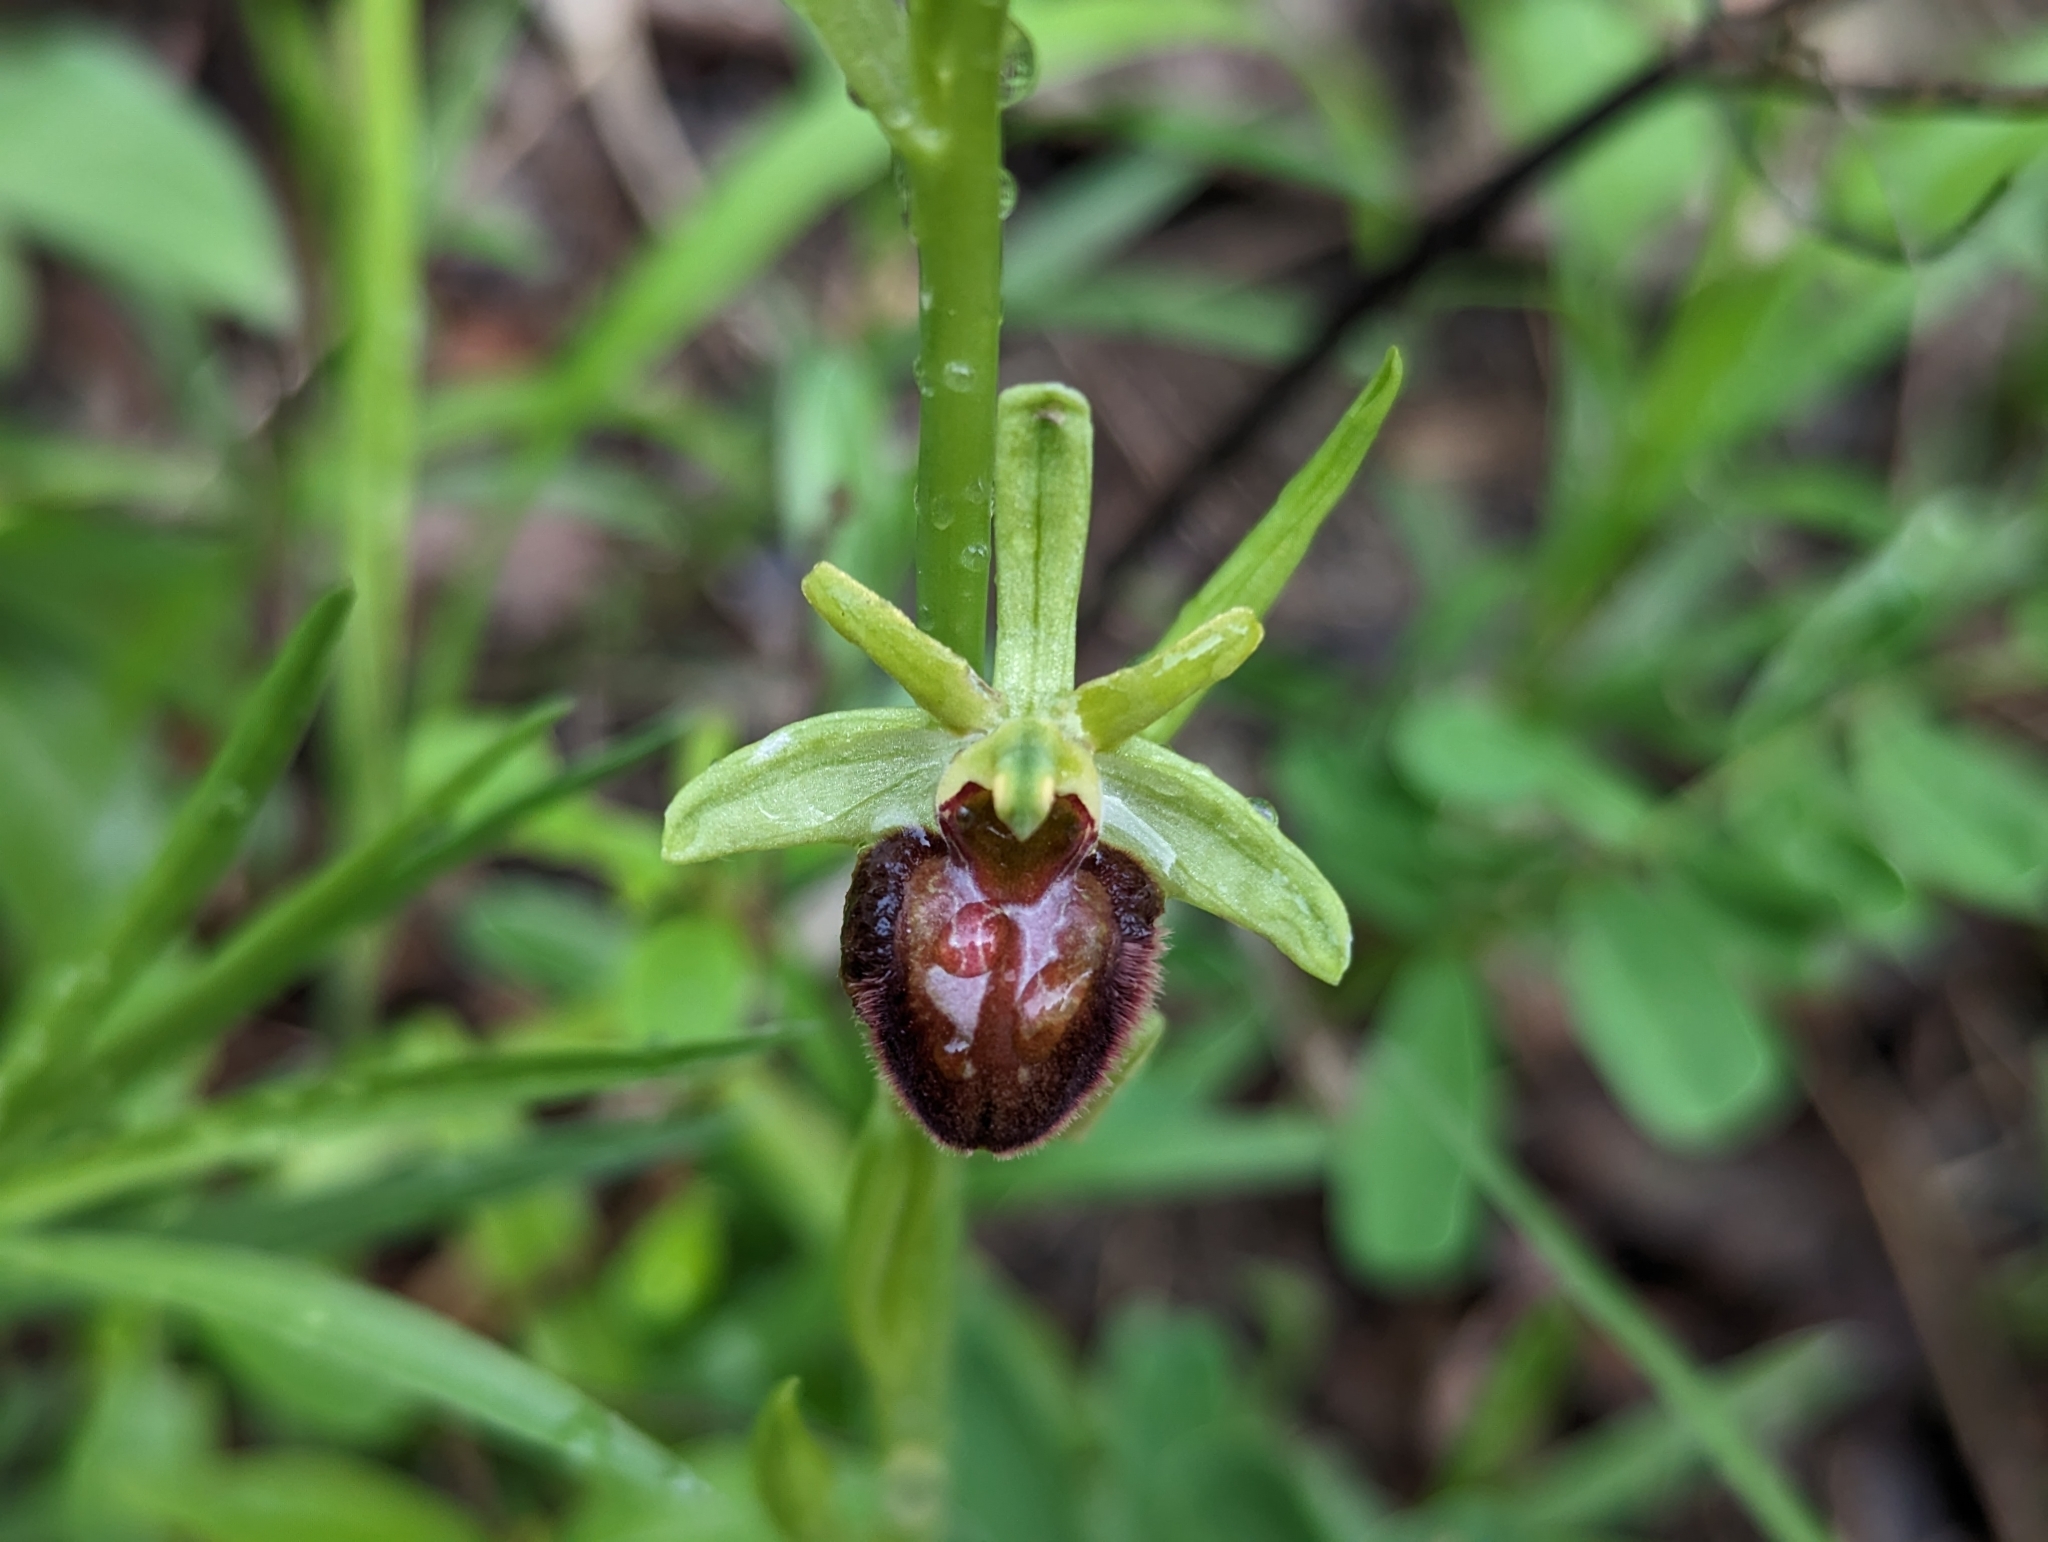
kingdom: Plantae
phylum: Tracheophyta
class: Liliopsida
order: Asparagales
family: Orchidaceae
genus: Ophrys
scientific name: Ophrys sphegodes
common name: Early spider-orchid
